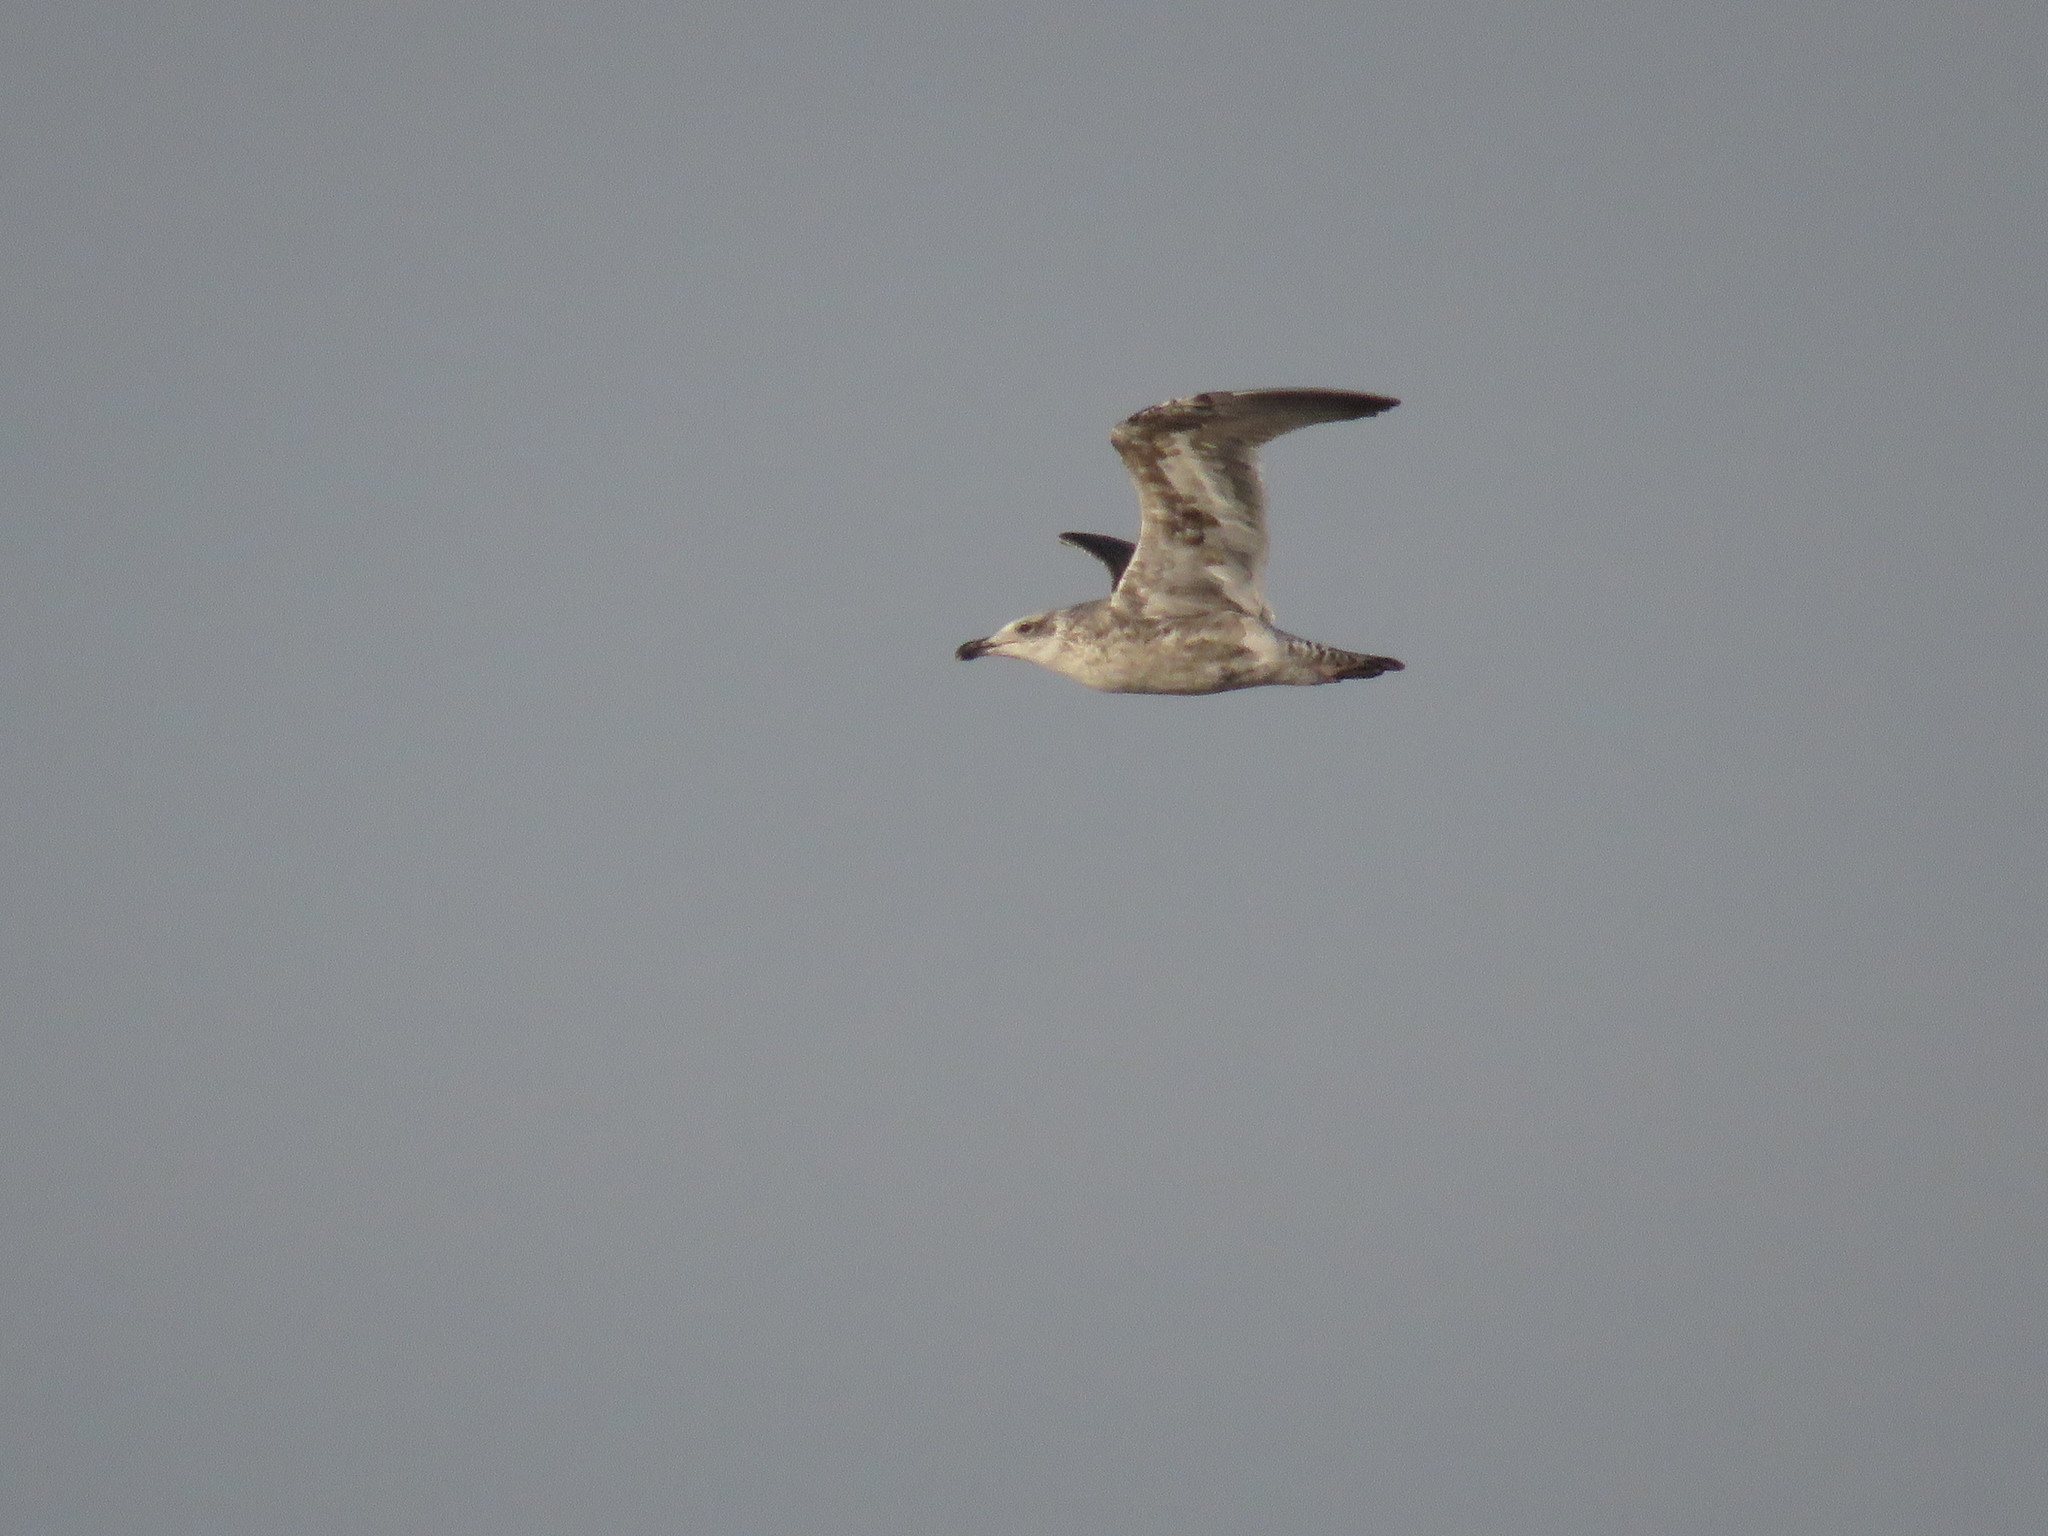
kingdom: Animalia
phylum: Chordata
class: Aves
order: Charadriiformes
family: Laridae
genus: Larus
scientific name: Larus dominicanus
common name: Kelp gull
